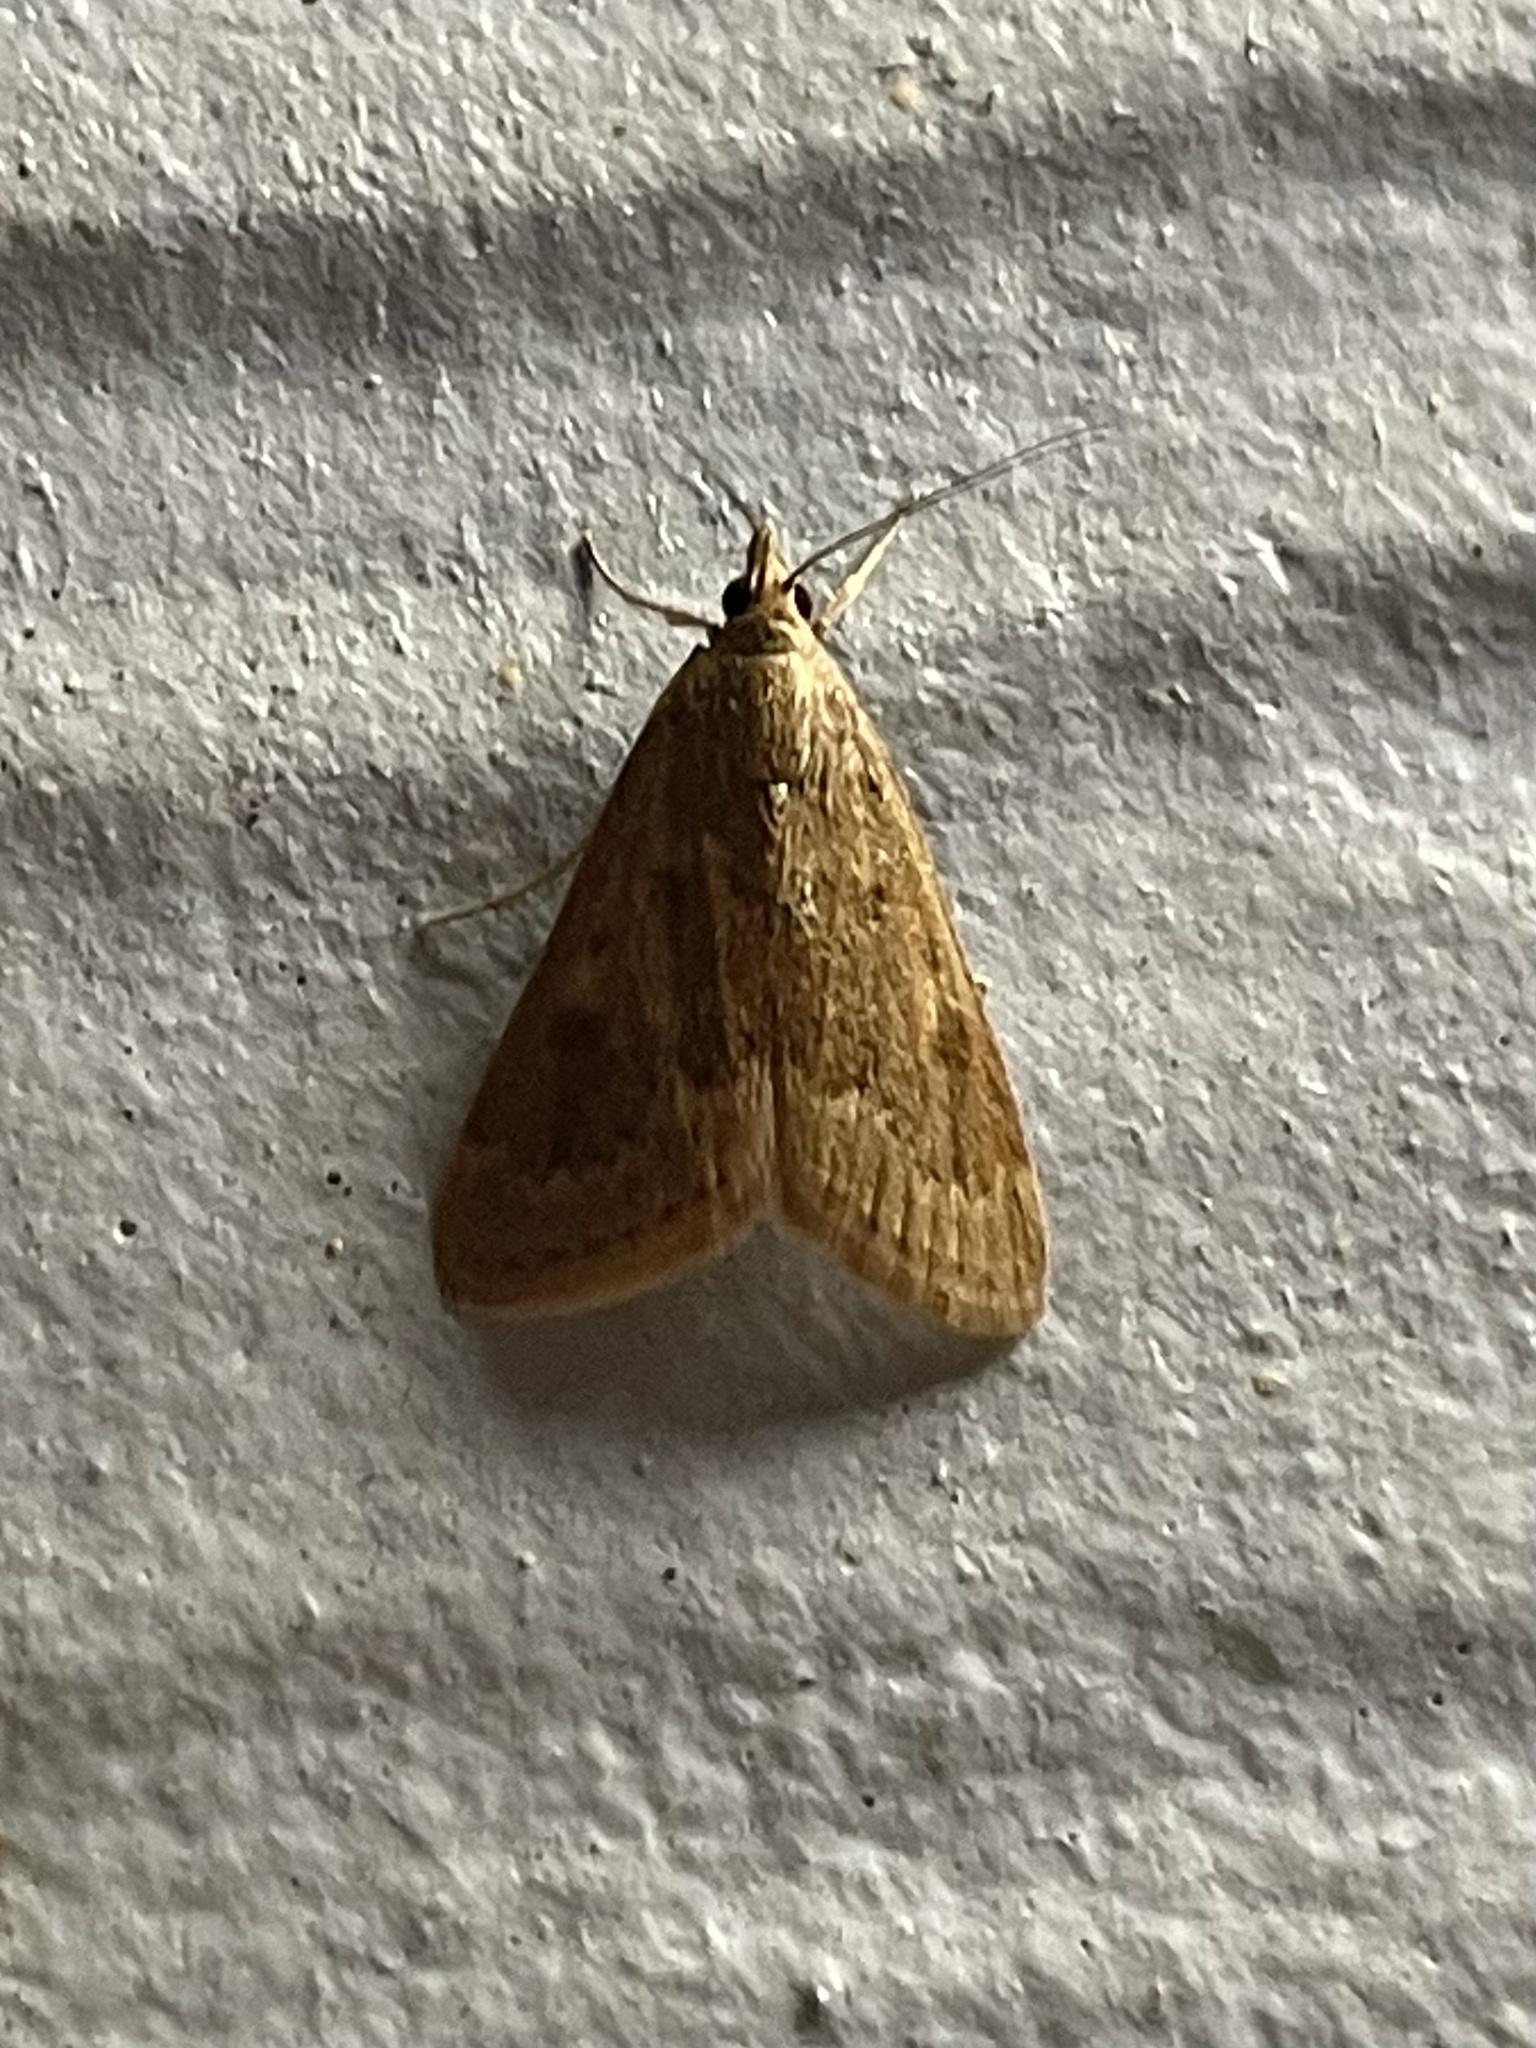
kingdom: Animalia
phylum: Arthropoda
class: Insecta
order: Lepidoptera
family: Crambidae
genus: Achyra
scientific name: Achyra rantalis
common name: Garden webworm
